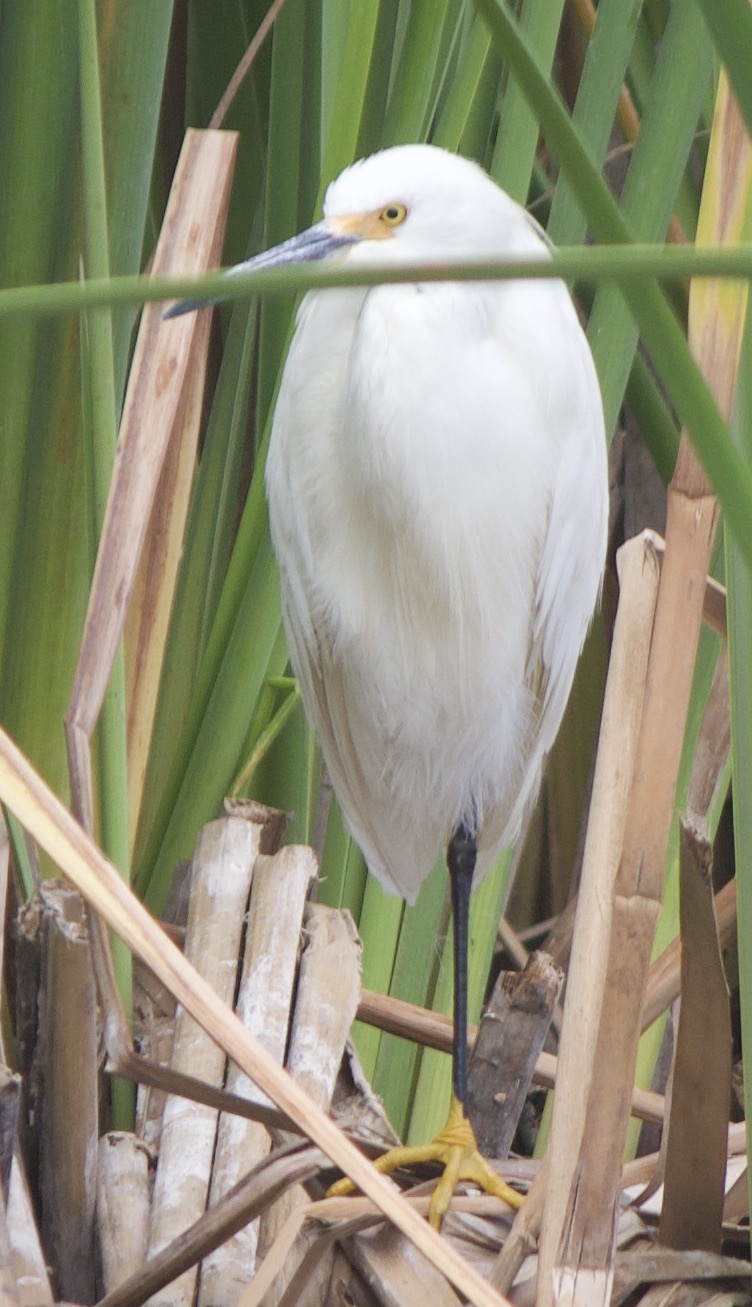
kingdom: Animalia
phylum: Chordata
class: Aves
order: Pelecaniformes
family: Ardeidae
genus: Egretta
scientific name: Egretta thula
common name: Snowy egret
